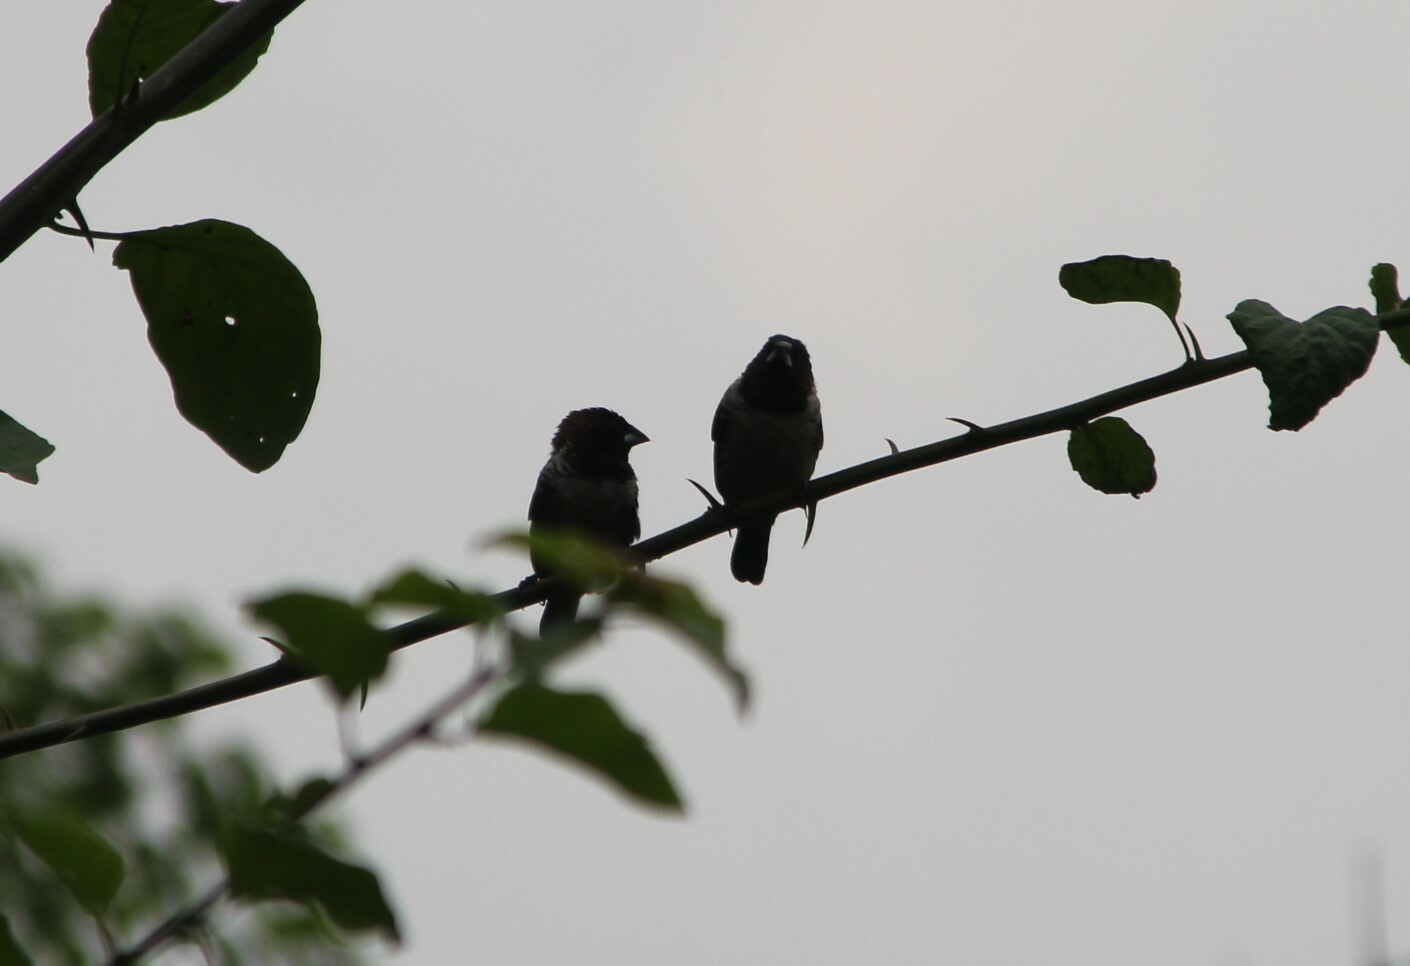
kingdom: Animalia
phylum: Chordata
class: Aves
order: Passeriformes
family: Estrildidae
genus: Lonchura
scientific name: Lonchura cucullata
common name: Bronze mannikin
